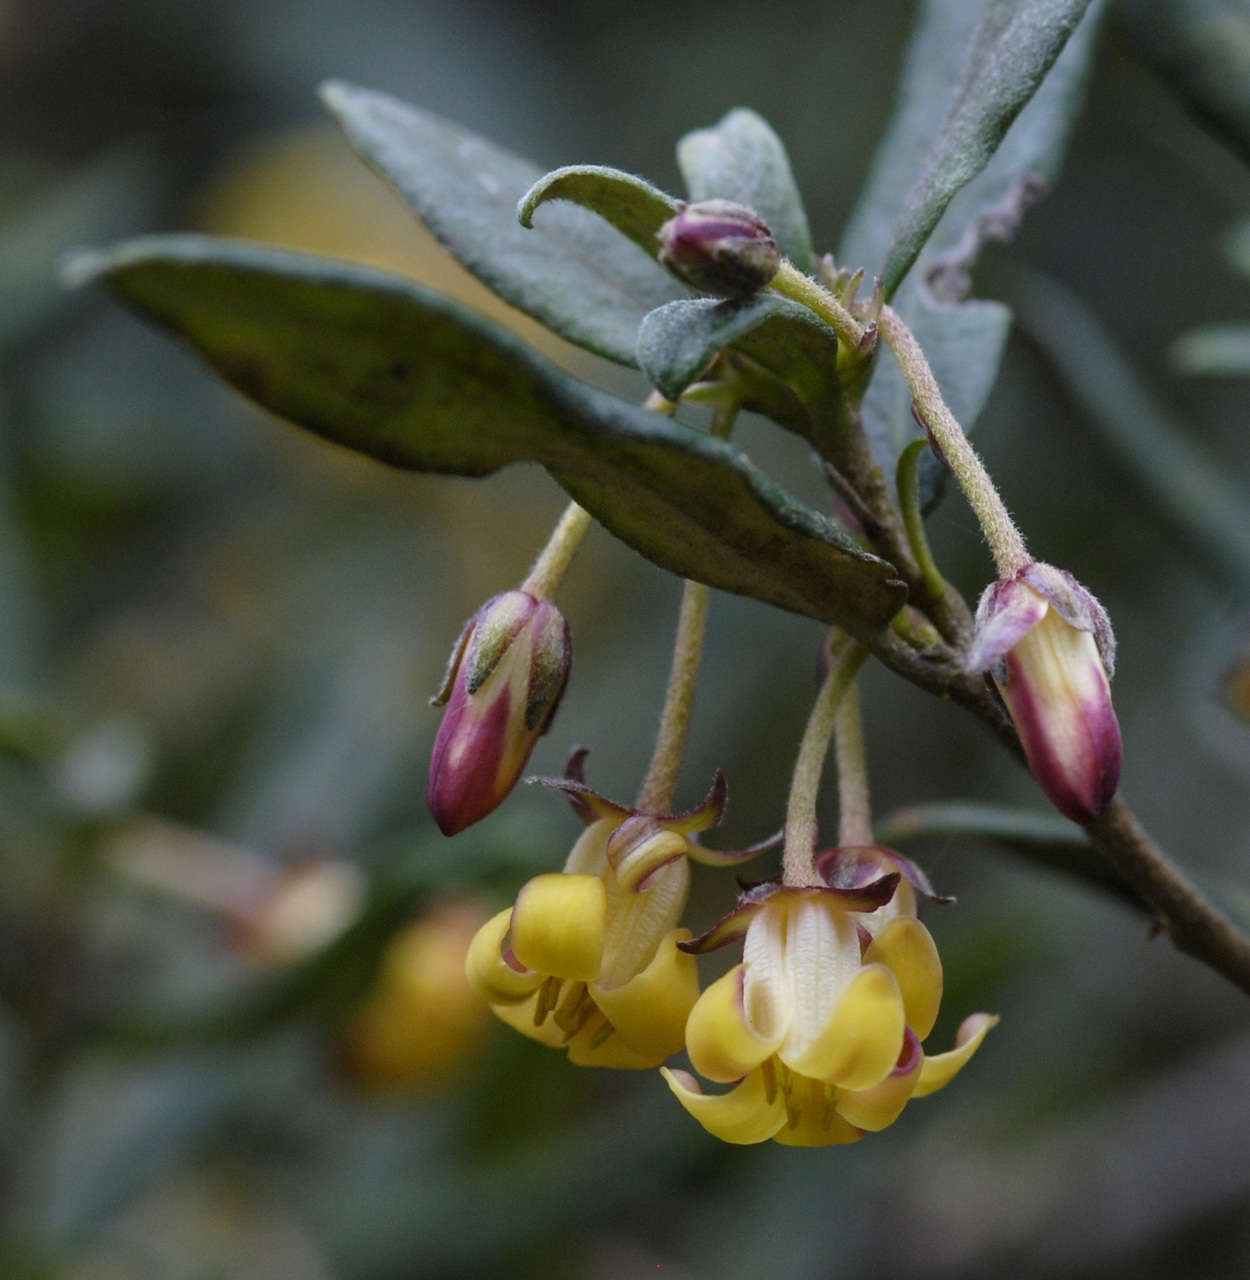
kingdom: Plantae
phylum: Tracheophyta
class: Magnoliopsida
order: Apiales
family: Pittosporaceae
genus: Pittosporum
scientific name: Pittosporum bicolor
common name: Tallowwood
